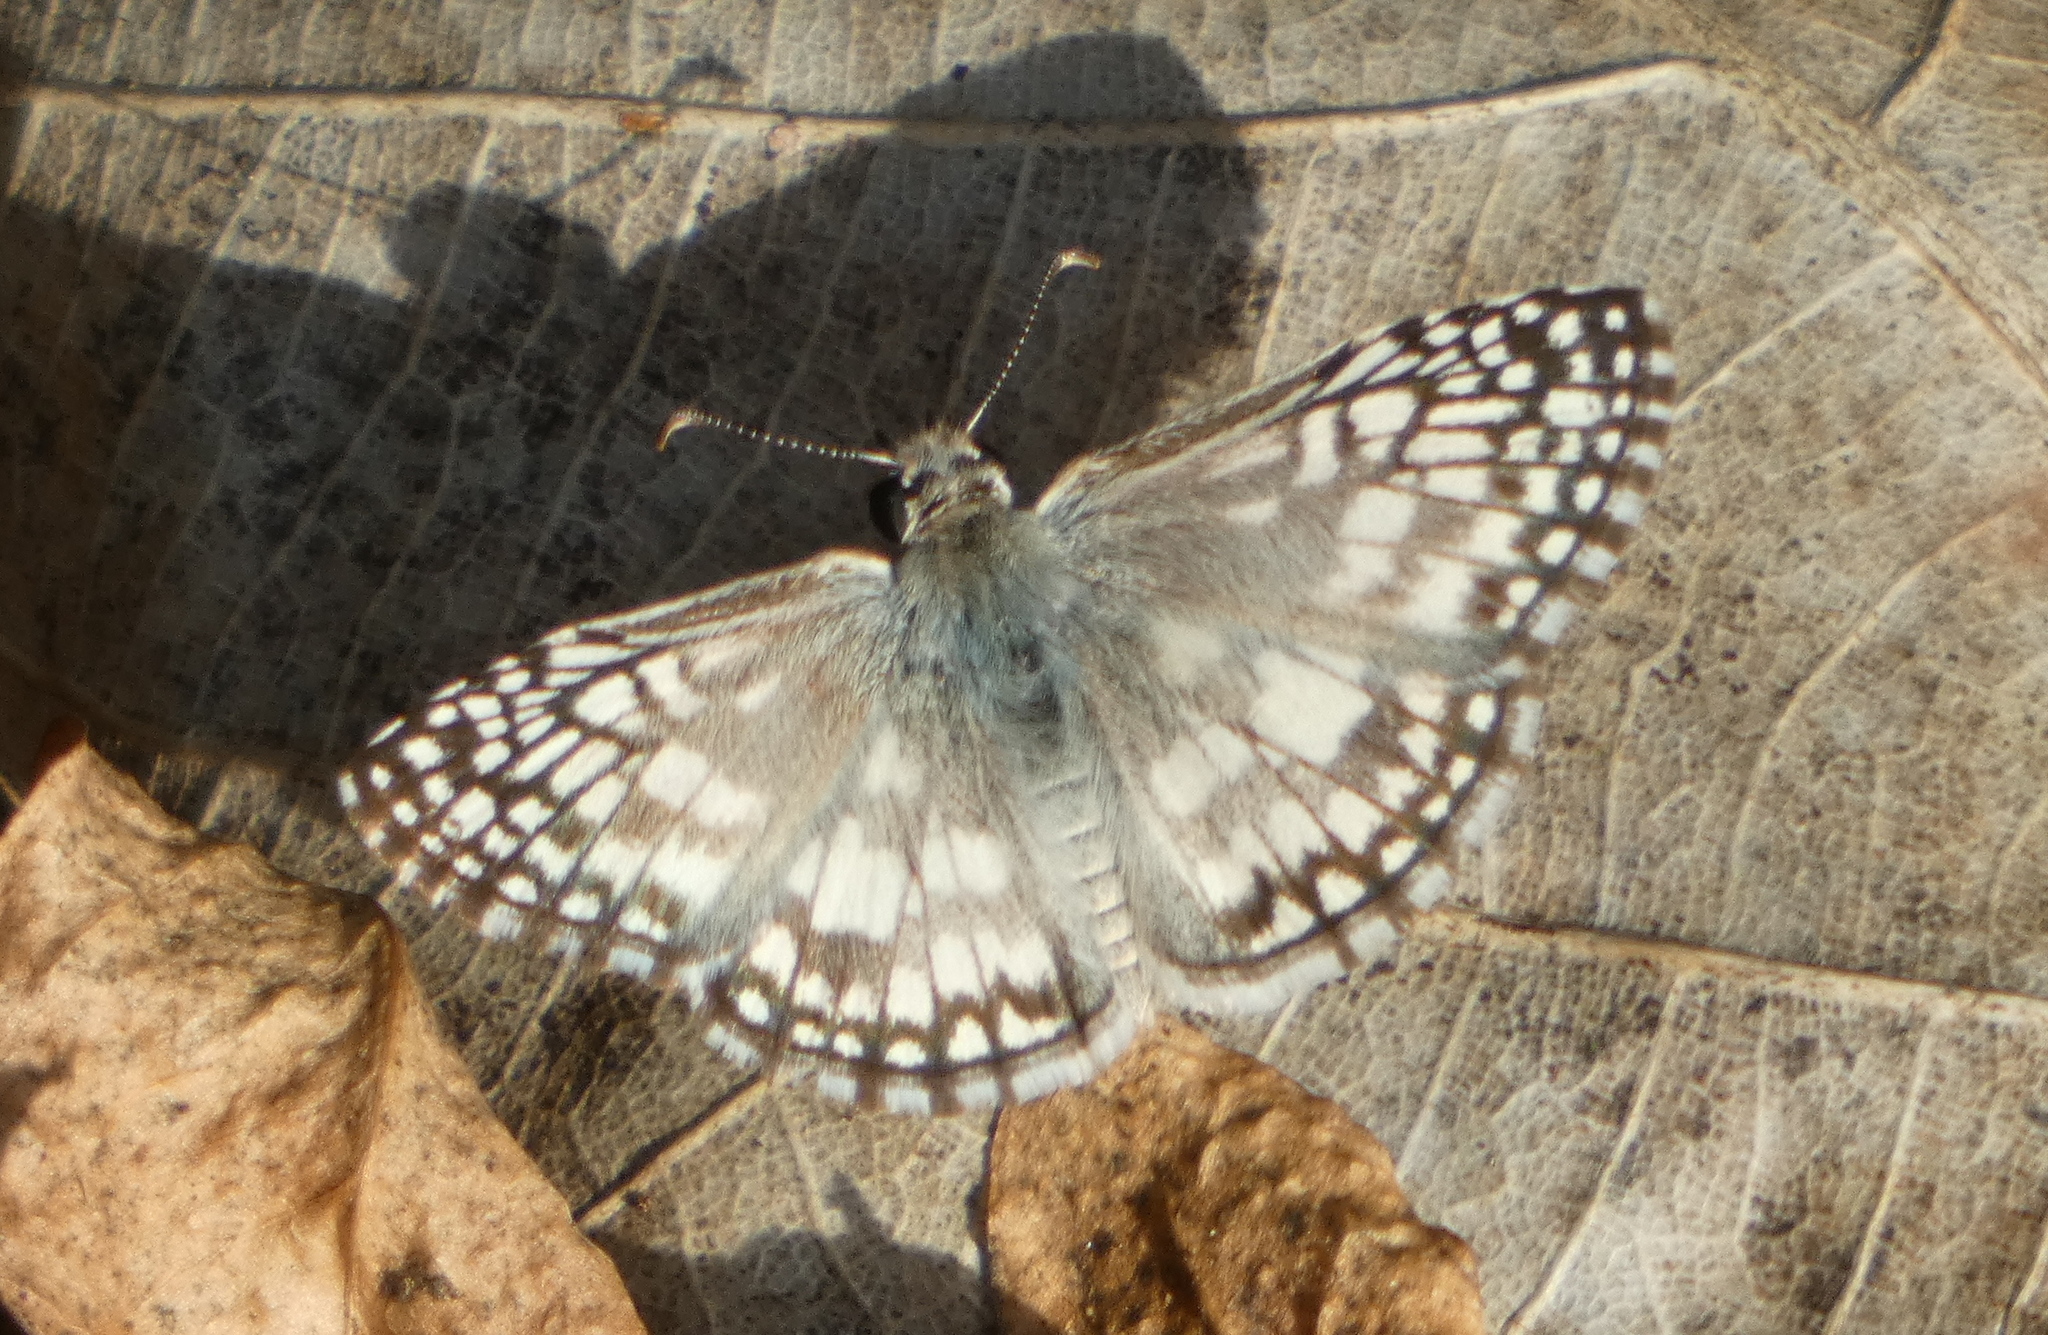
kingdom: Animalia
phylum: Arthropoda
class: Insecta
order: Lepidoptera
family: Hesperiidae
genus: Pyrgus
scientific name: Pyrgus oileus
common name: Tropical checkered-skipper
